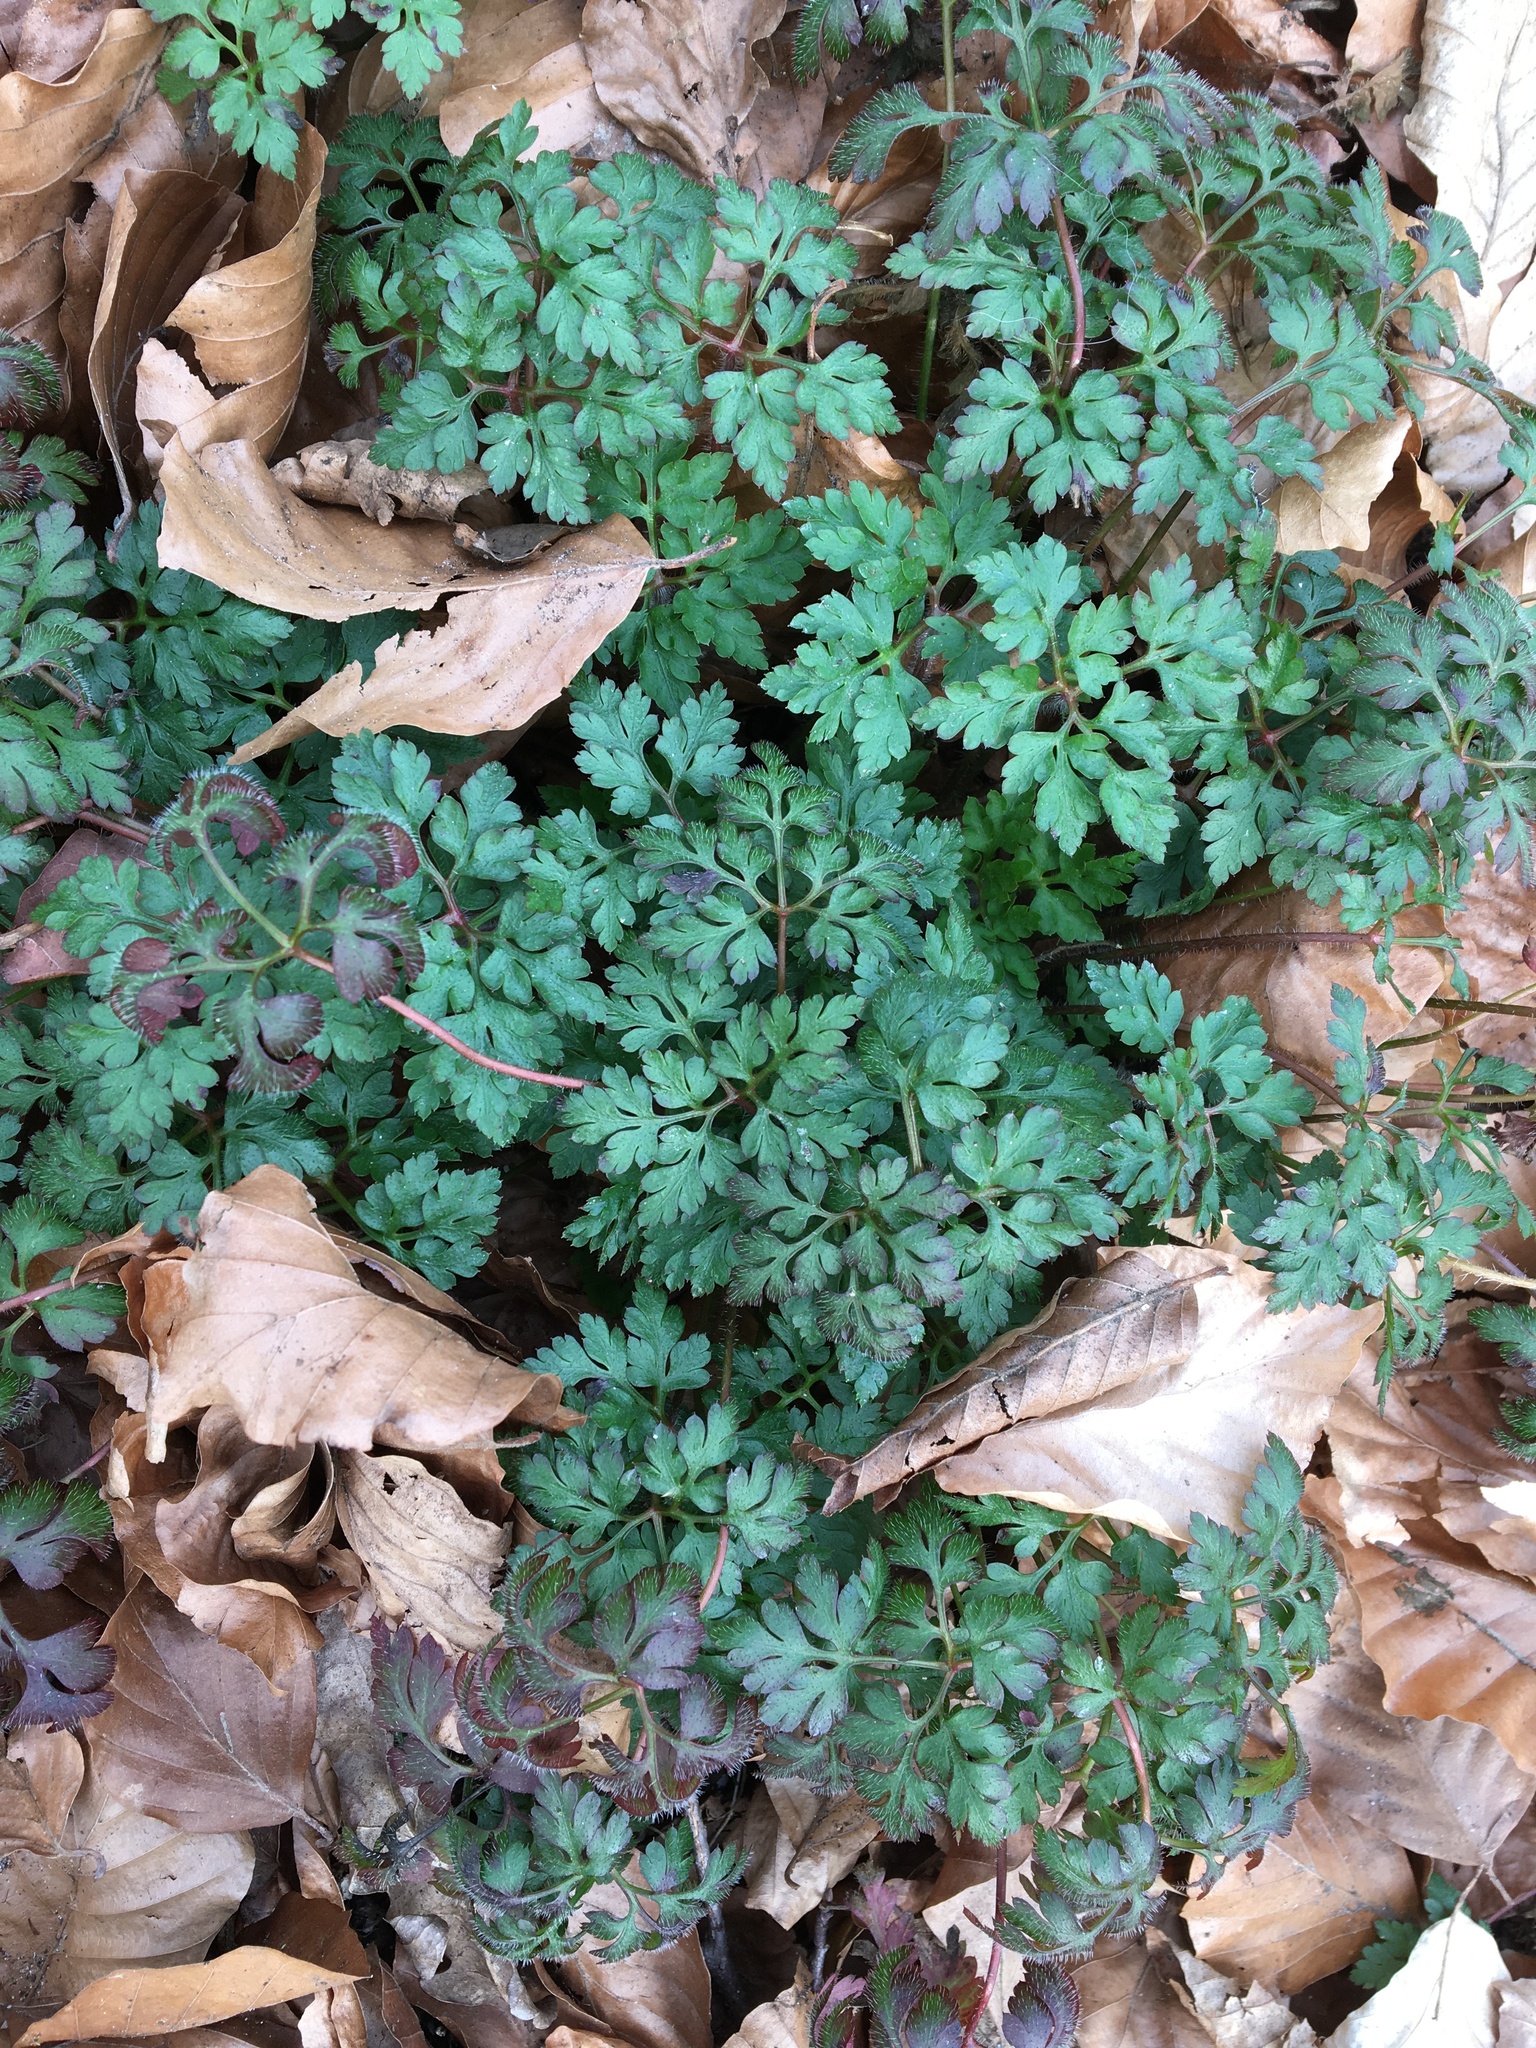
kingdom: Plantae
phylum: Tracheophyta
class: Magnoliopsida
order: Geraniales
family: Geraniaceae
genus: Geranium
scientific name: Geranium robertianum
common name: Herb-robert
